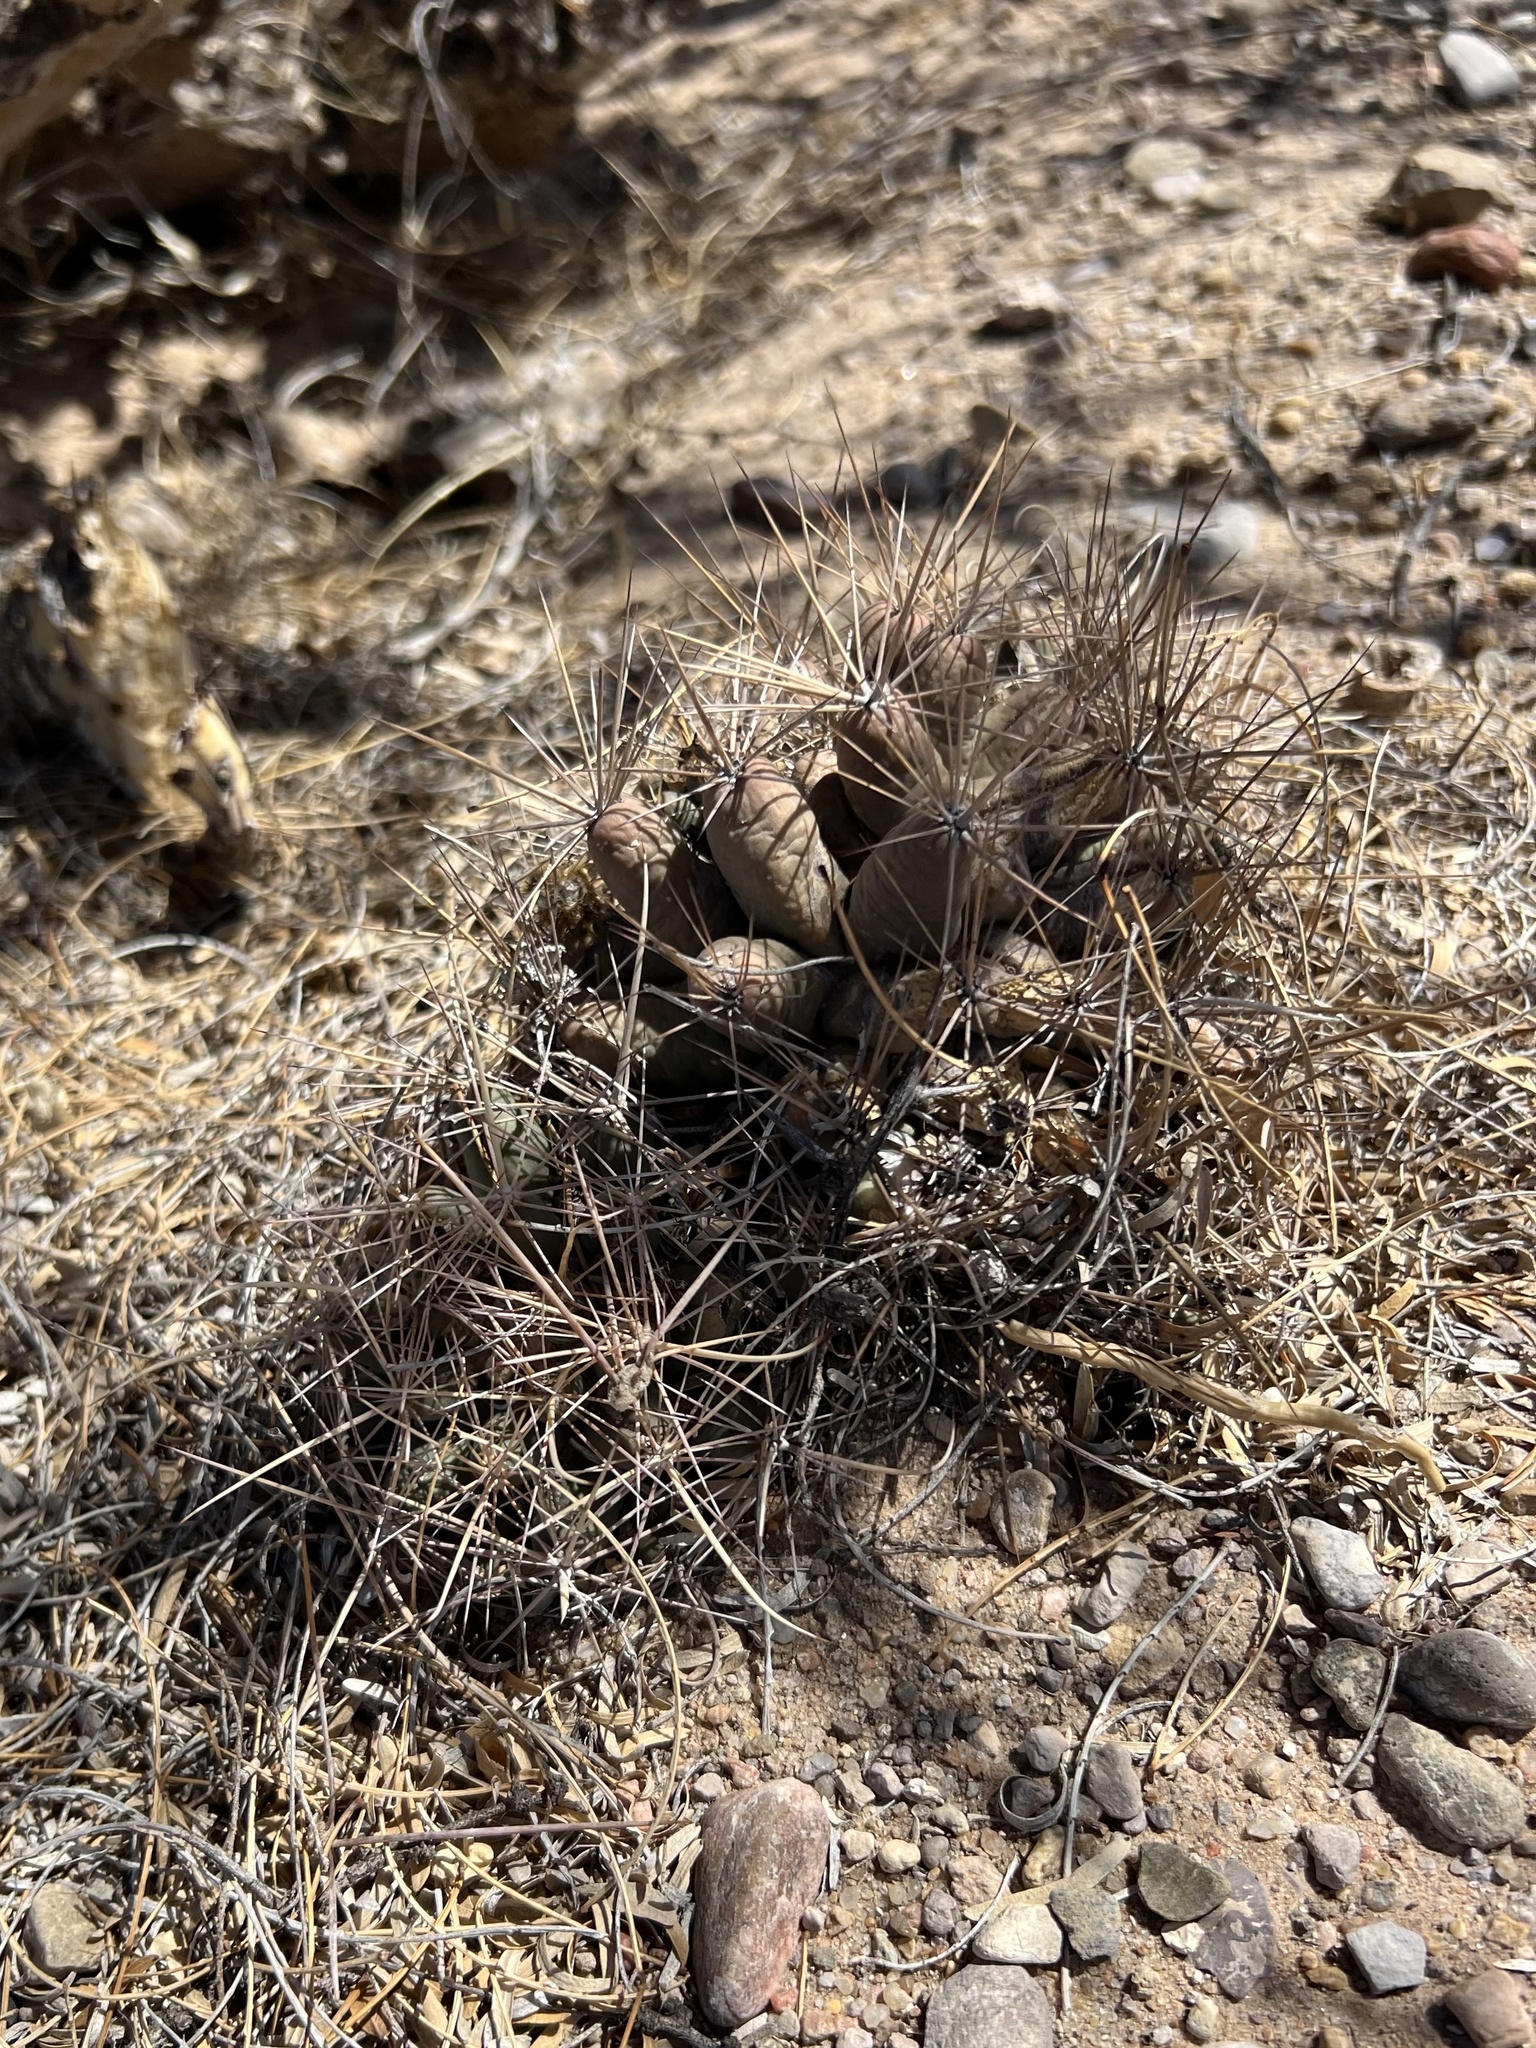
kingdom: Plantae
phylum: Tracheophyta
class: Magnoliopsida
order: Caryophyllales
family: Cactaceae
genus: Coryphantha
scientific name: Coryphantha robustispina
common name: Pima pineapple cactus
